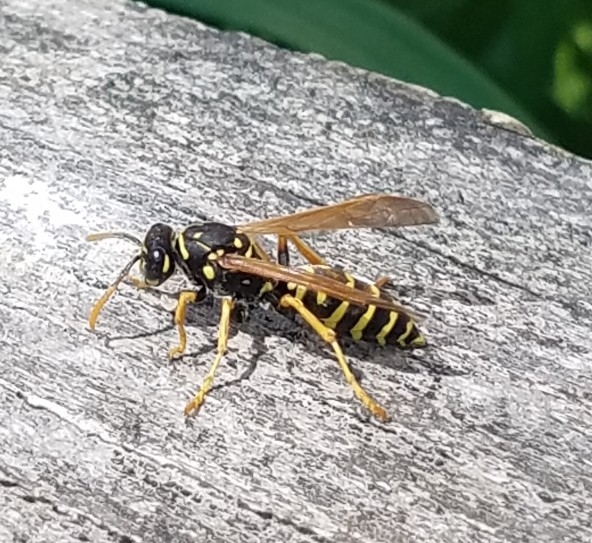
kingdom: Animalia
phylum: Arthropoda
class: Insecta
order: Hymenoptera
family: Eumenidae
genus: Polistes
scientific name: Polistes dominula
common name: Paper wasp
